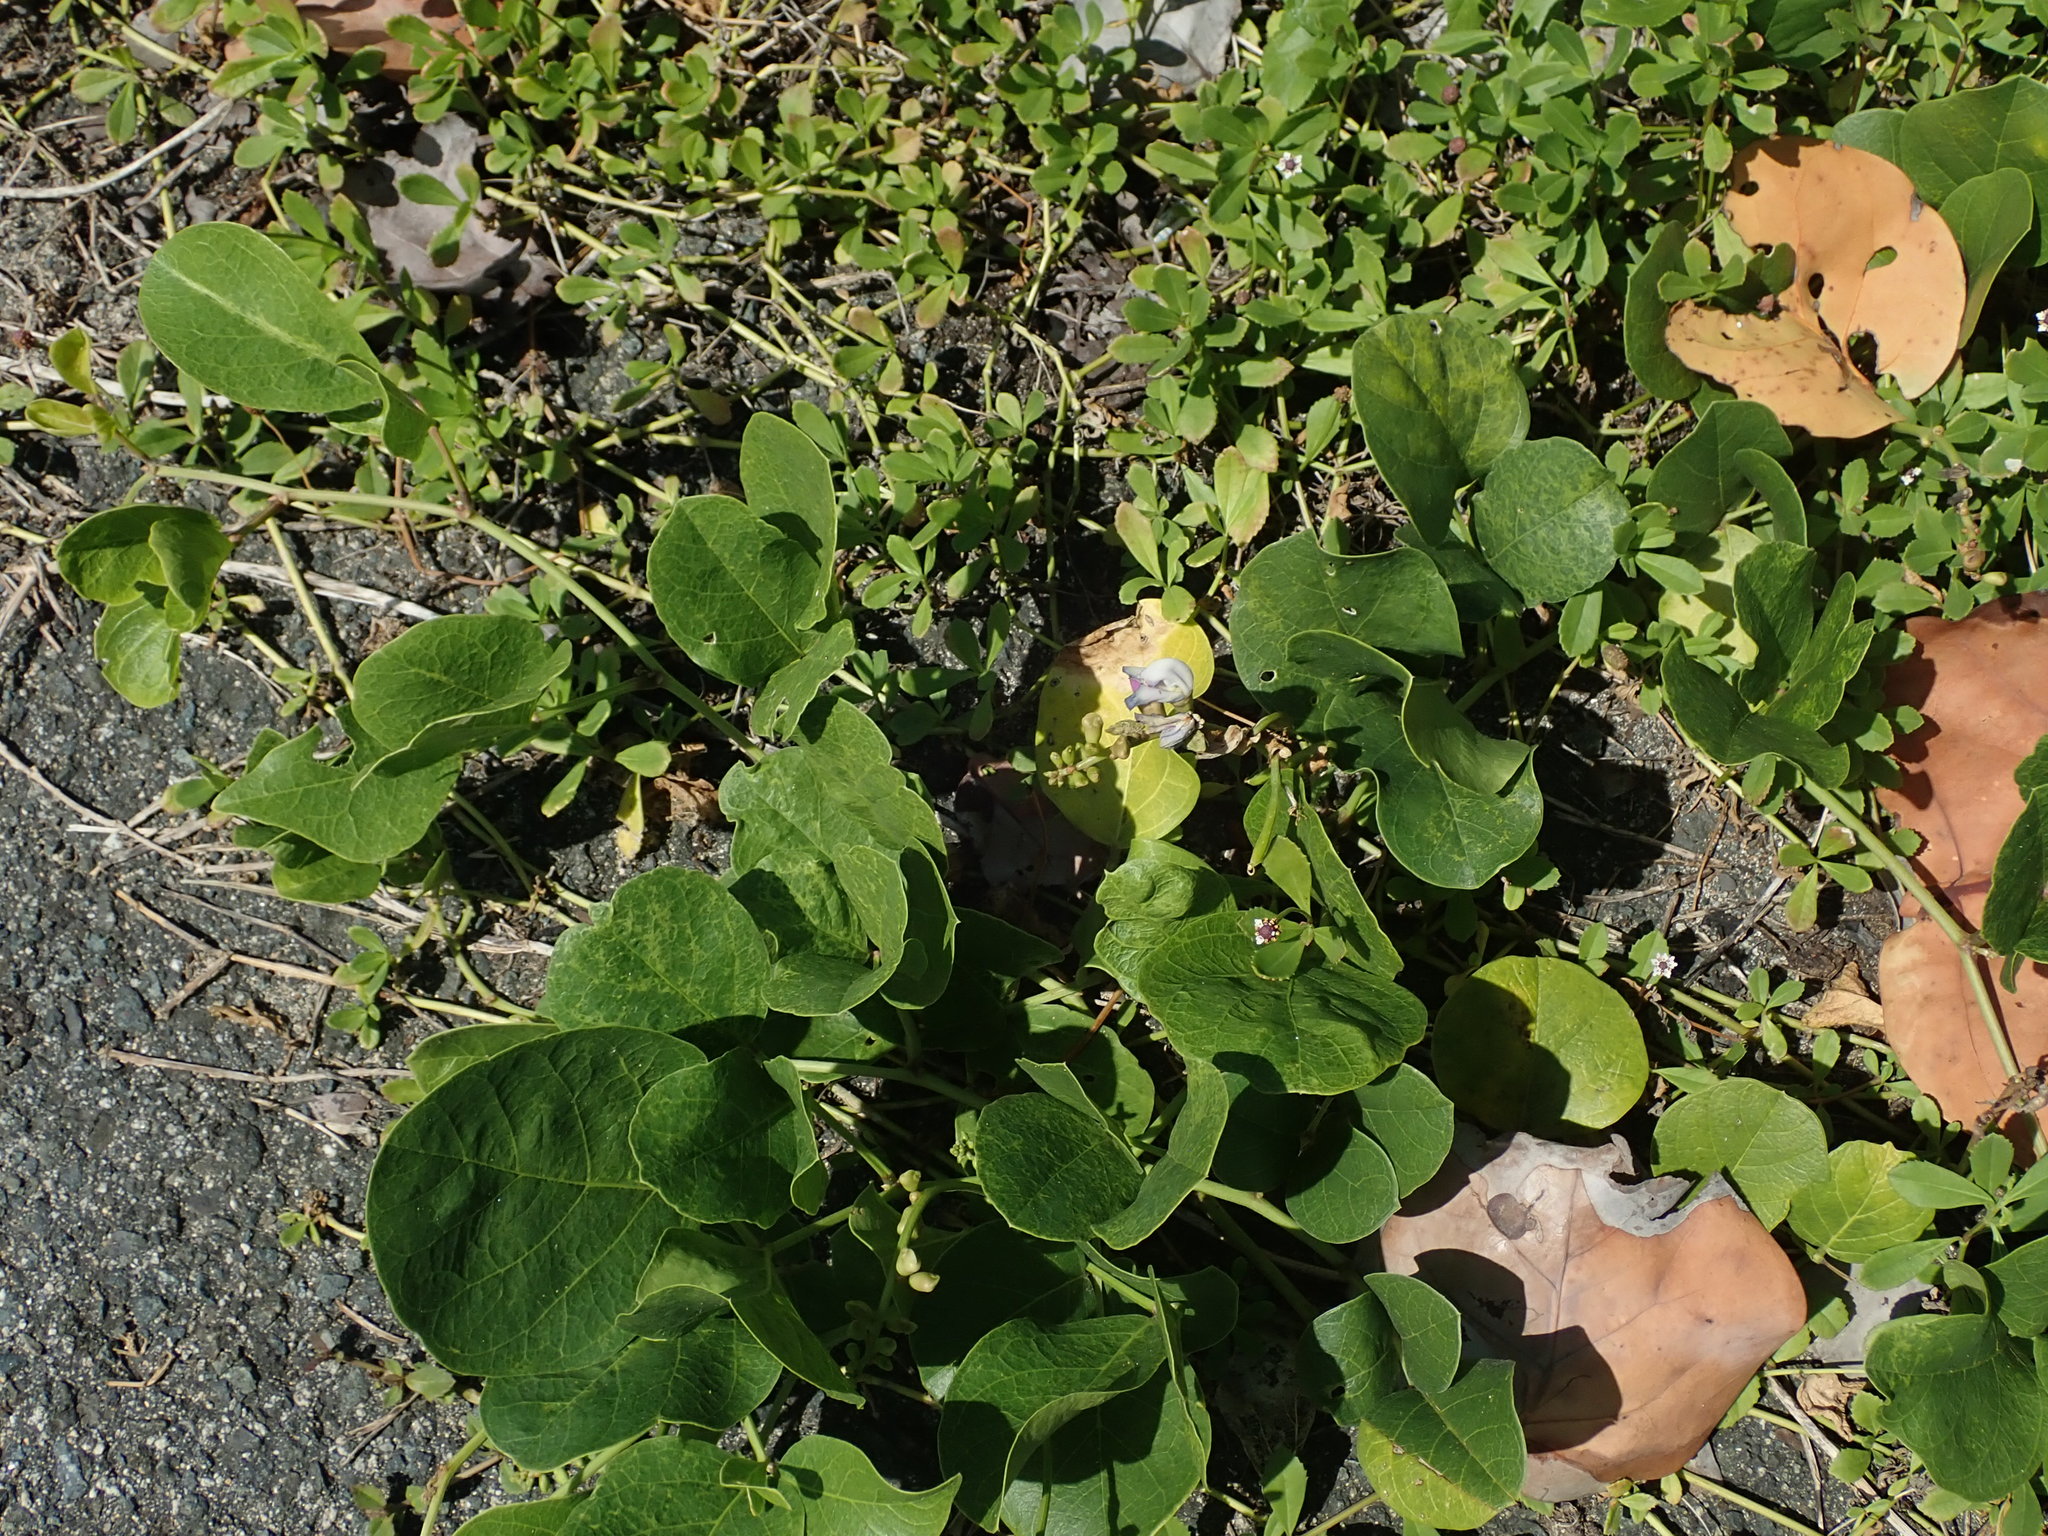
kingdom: Plantae
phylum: Tracheophyta
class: Magnoliopsida
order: Fabales
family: Fabaceae
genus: Canavalia
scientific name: Canavalia rosea
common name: Beach-bean
